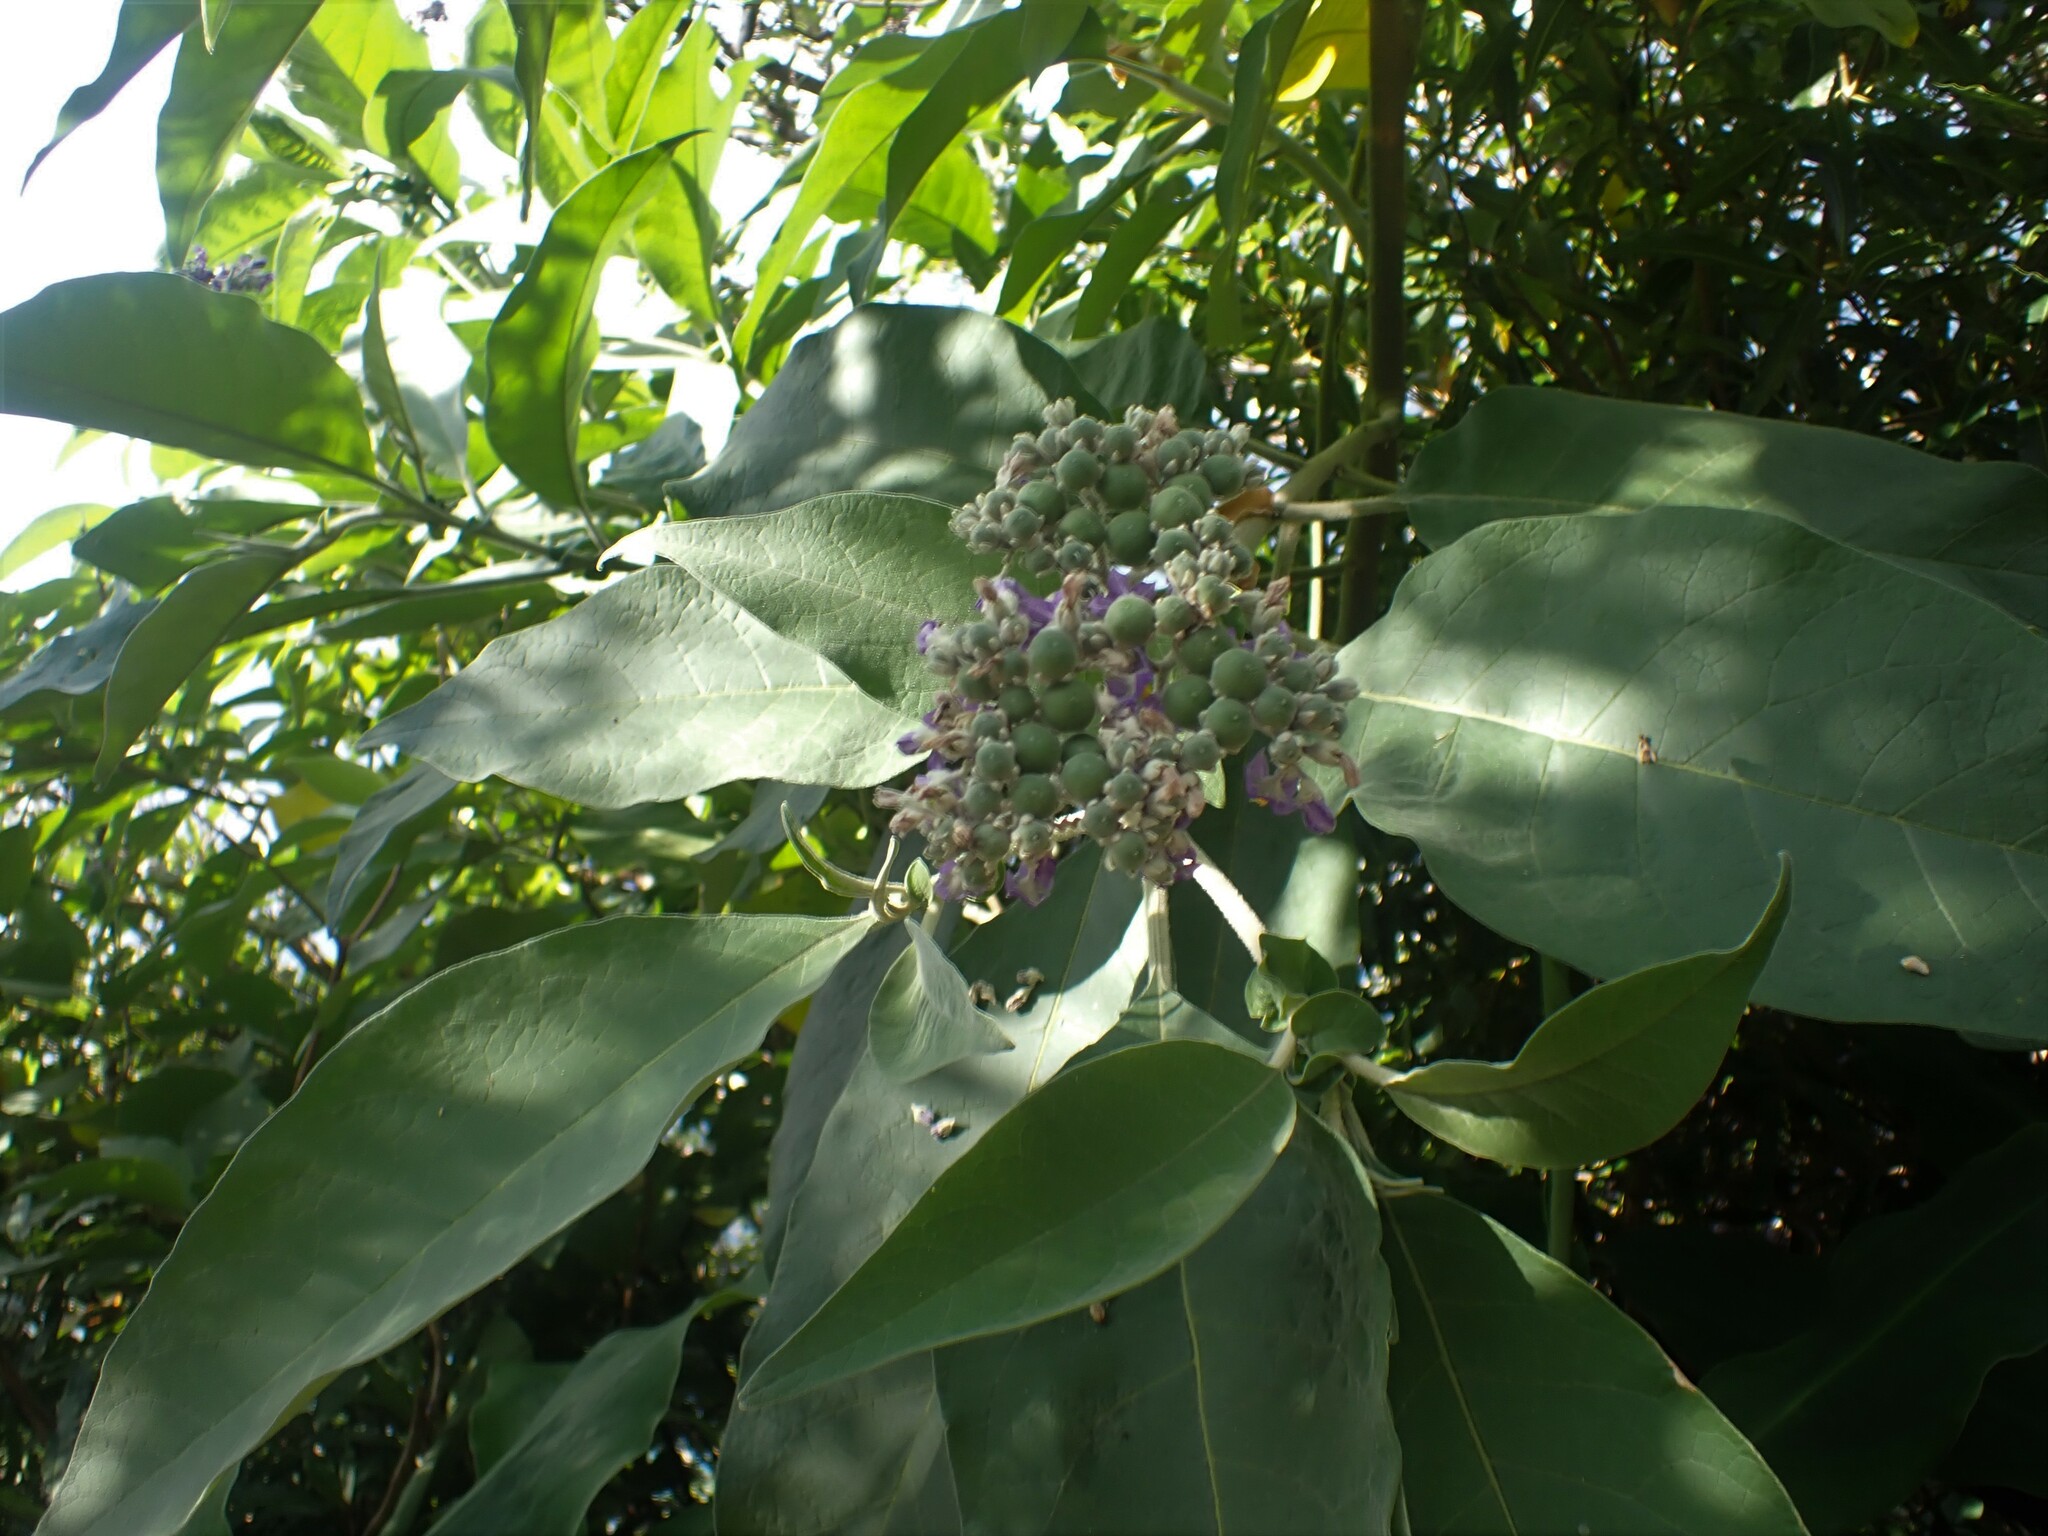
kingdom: Plantae
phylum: Tracheophyta
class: Magnoliopsida
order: Solanales
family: Solanaceae
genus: Solanum
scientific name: Solanum mauritianum
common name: Earleaf nightshade
